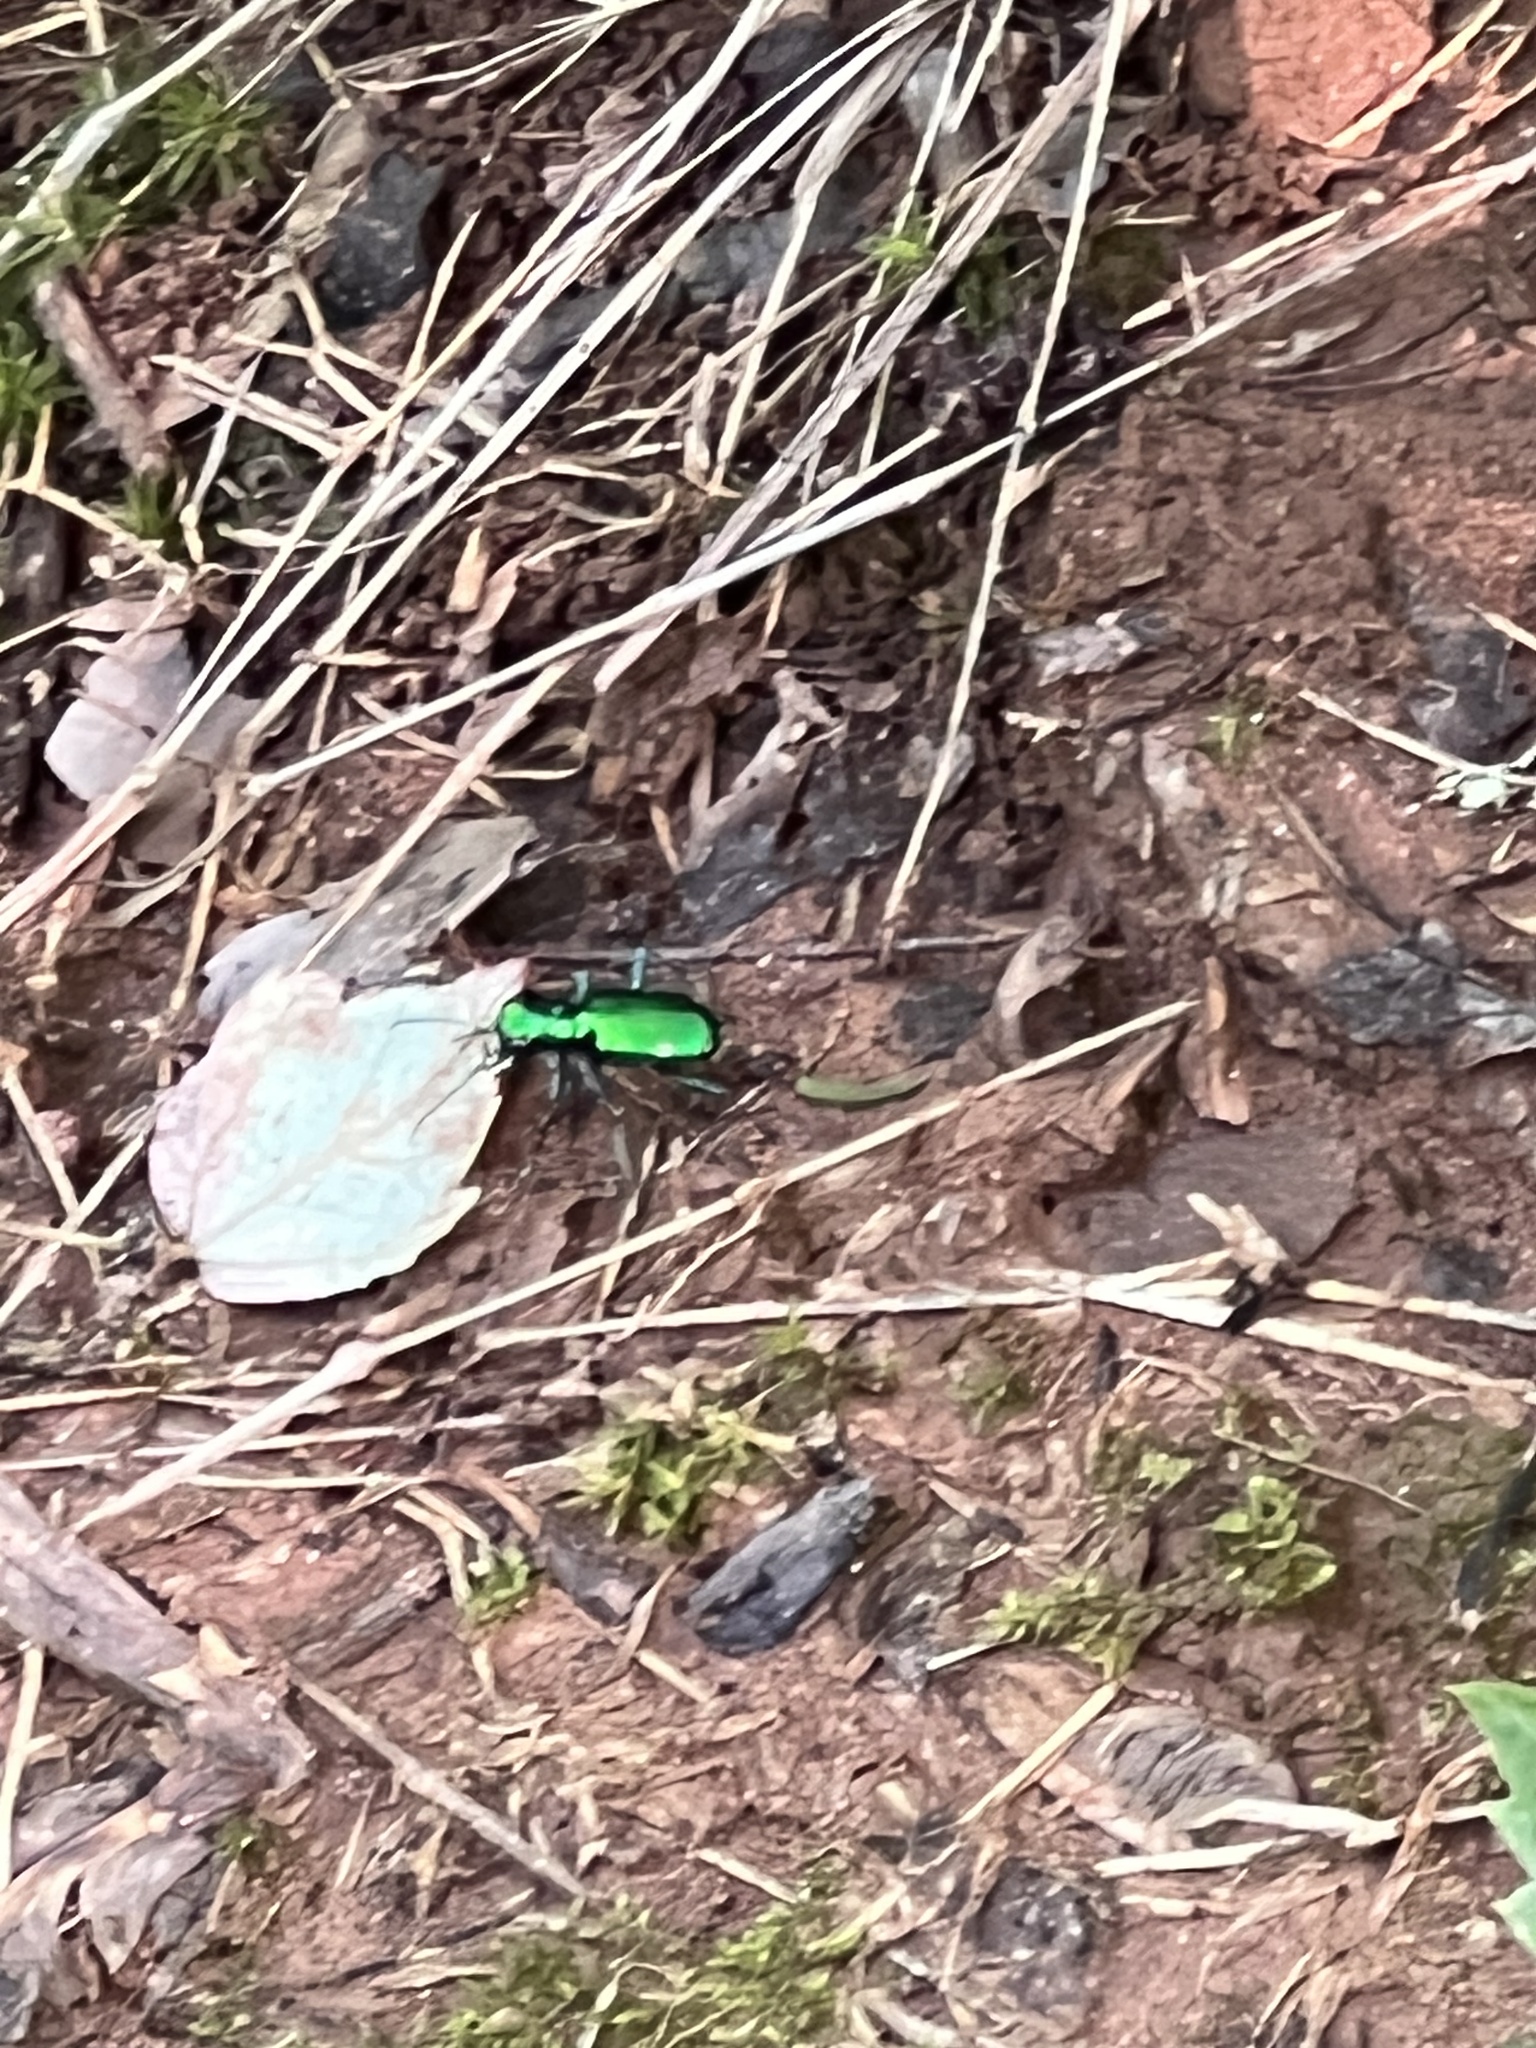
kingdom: Animalia
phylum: Arthropoda
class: Insecta
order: Coleoptera
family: Carabidae
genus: Cicindela
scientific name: Cicindela sexguttata
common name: Six-spotted tiger beetle
